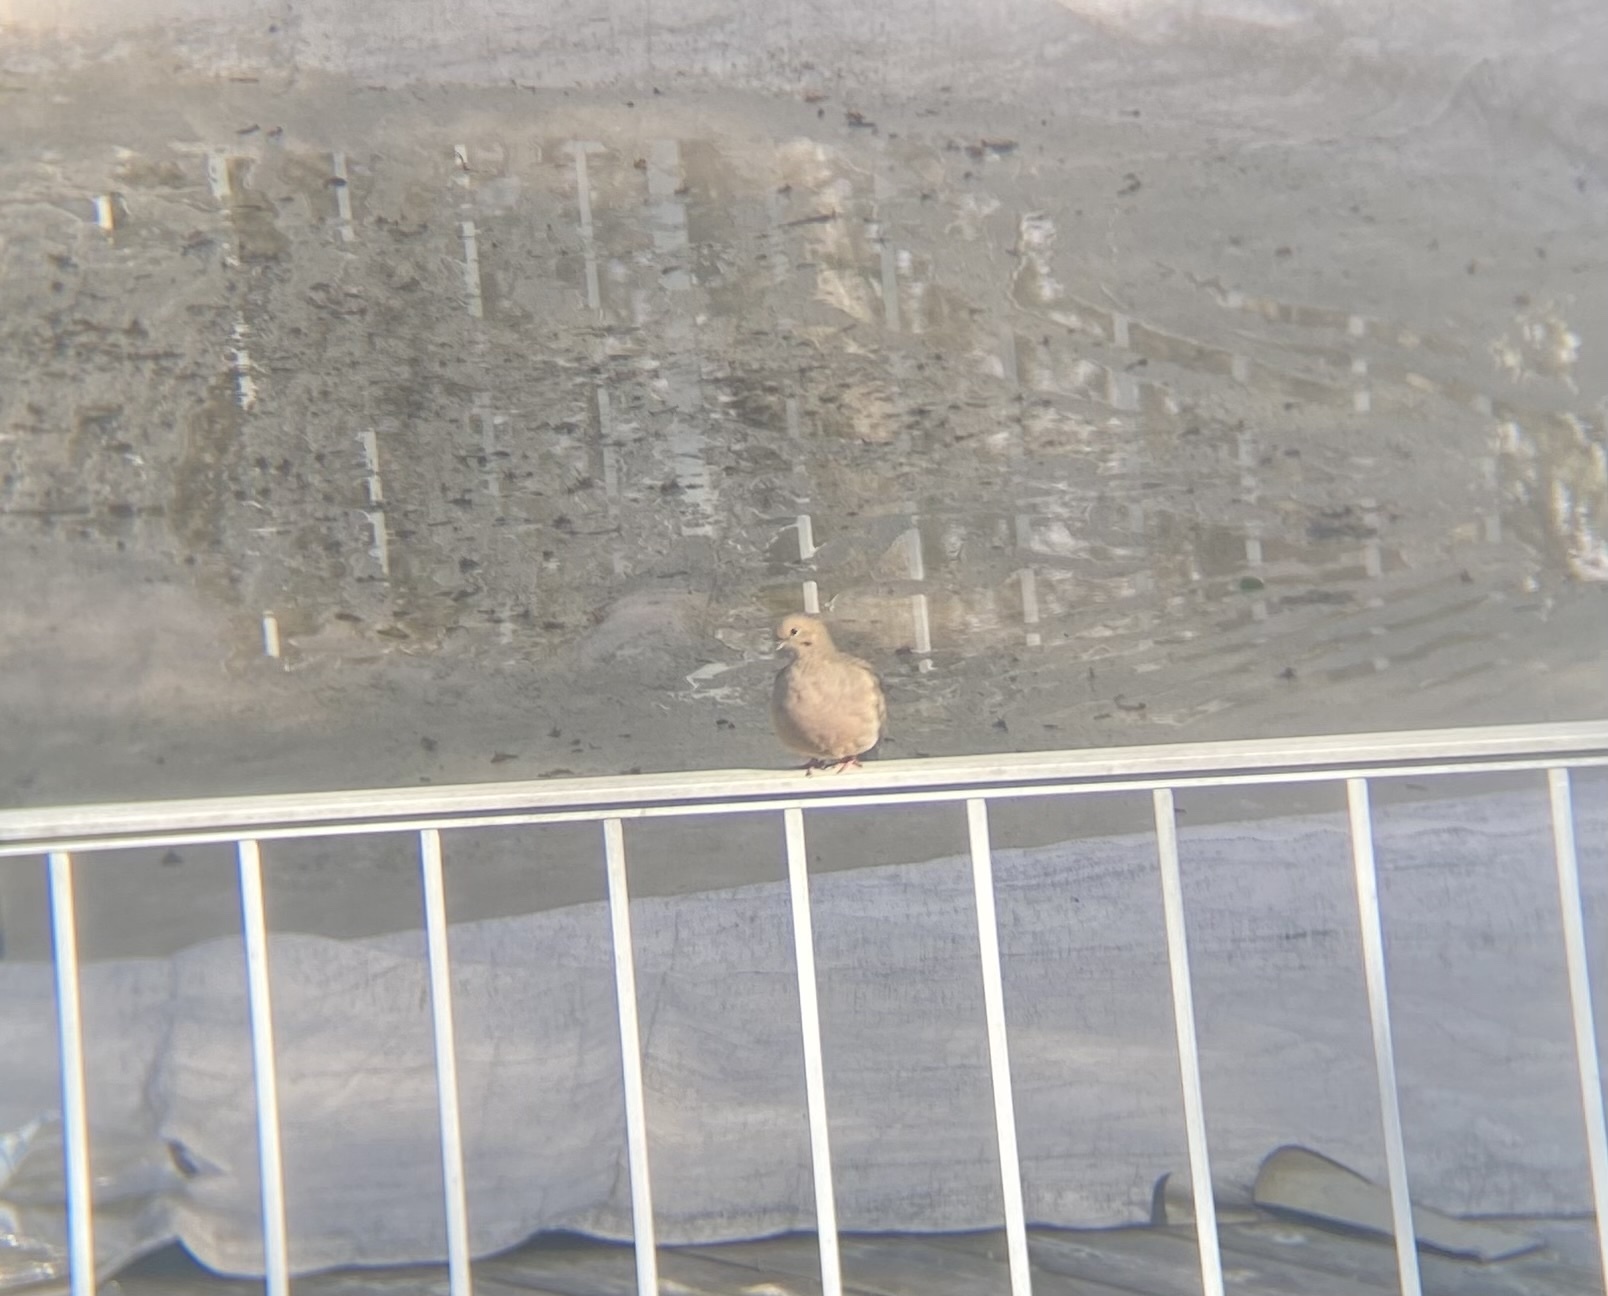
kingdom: Animalia
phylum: Chordata
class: Aves
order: Columbiformes
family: Columbidae
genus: Zenaida
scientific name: Zenaida macroura
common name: Mourning dove
